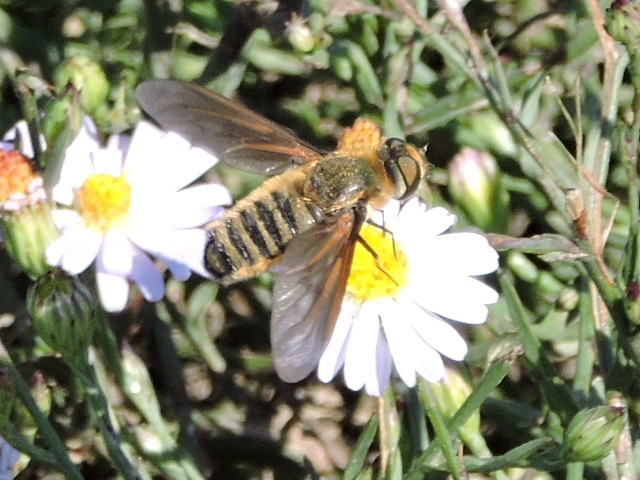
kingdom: Animalia
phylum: Arthropoda
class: Insecta
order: Diptera
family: Bombyliidae
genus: Poecilanthrax
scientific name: Poecilanthrax lucifer
